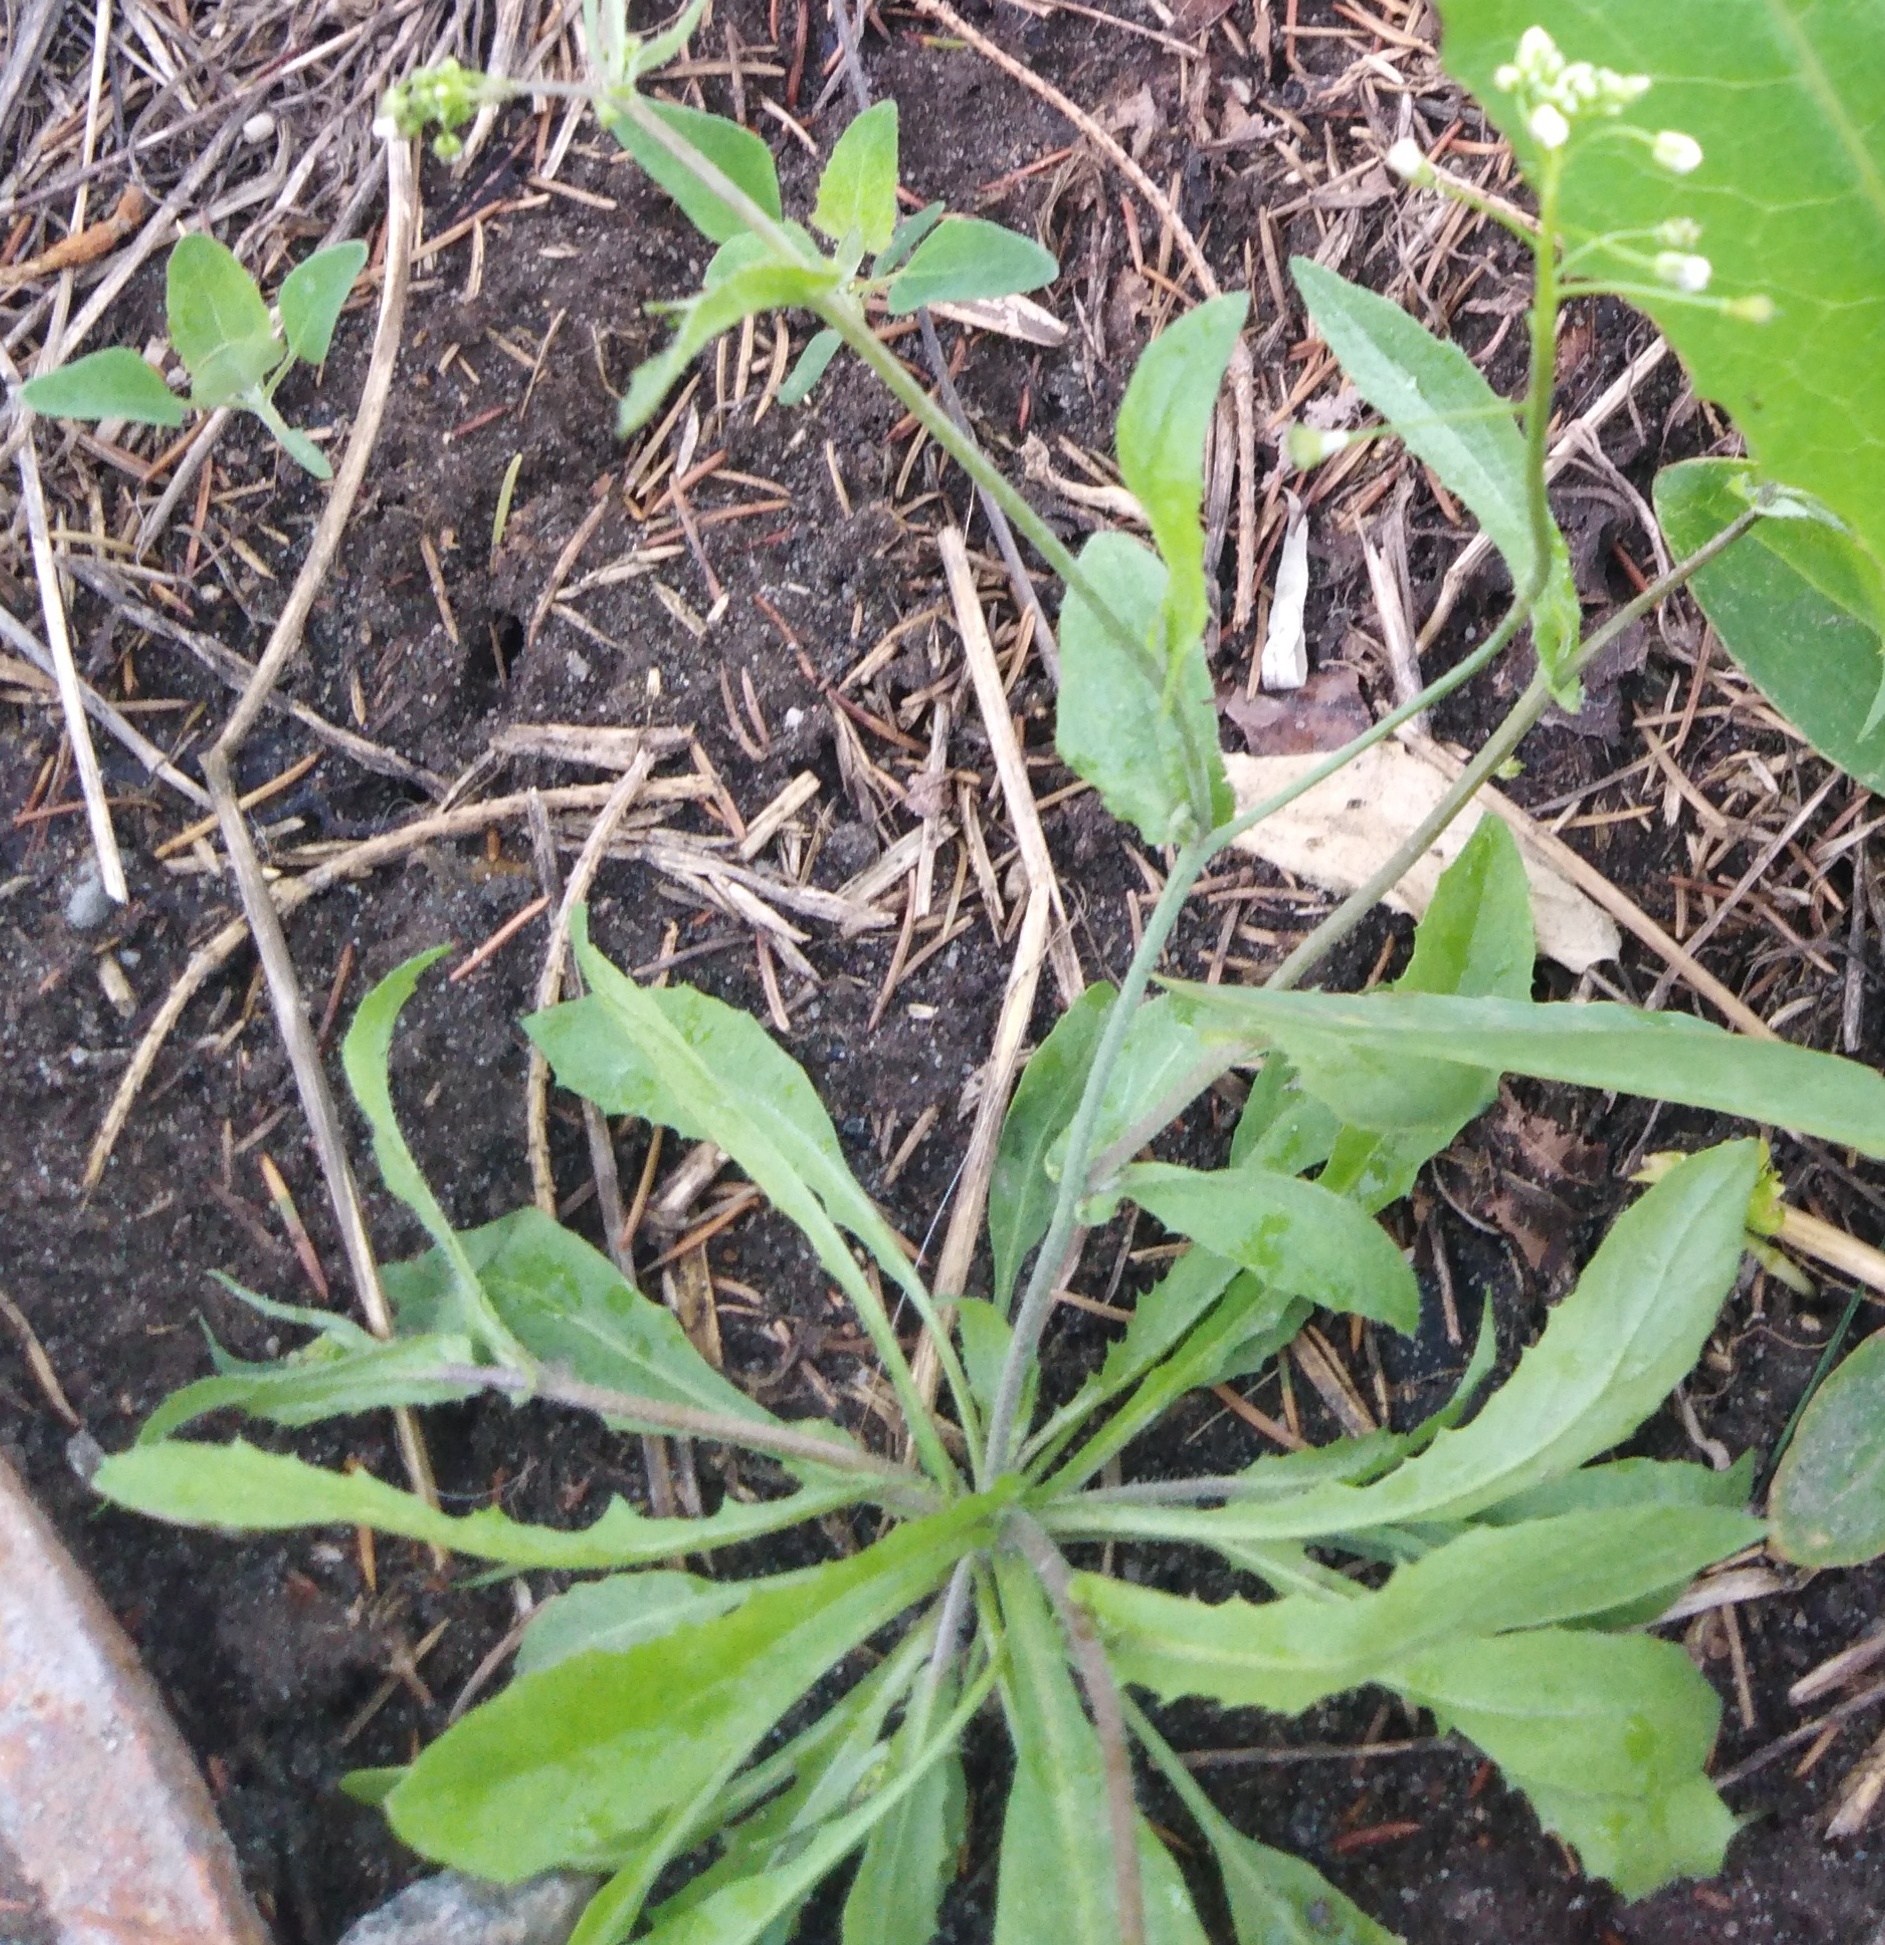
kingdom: Plantae
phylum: Tracheophyta
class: Magnoliopsida
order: Brassicales
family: Brassicaceae
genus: Capsella
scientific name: Capsella bursa-pastoris
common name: Shepherd's purse
